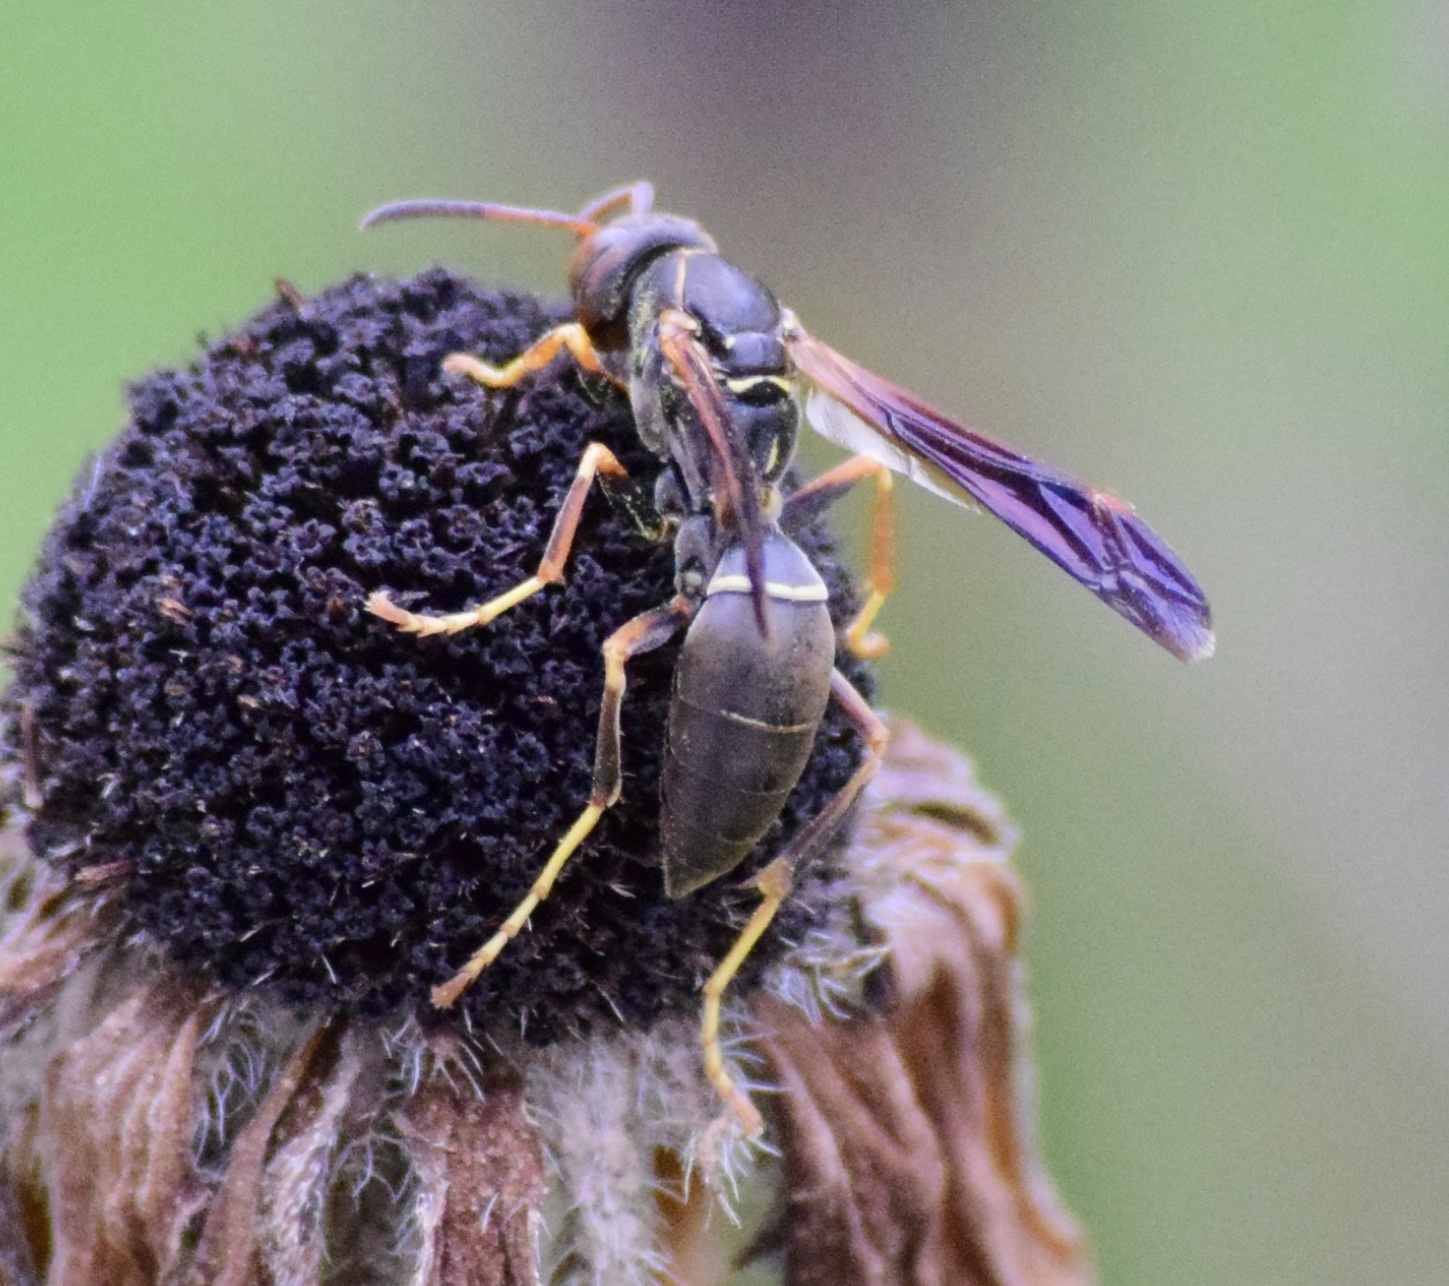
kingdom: Animalia
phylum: Arthropoda
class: Insecta
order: Hymenoptera
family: Eumenidae
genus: Polistes
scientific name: Polistes fuscatus
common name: Dark paper wasp
